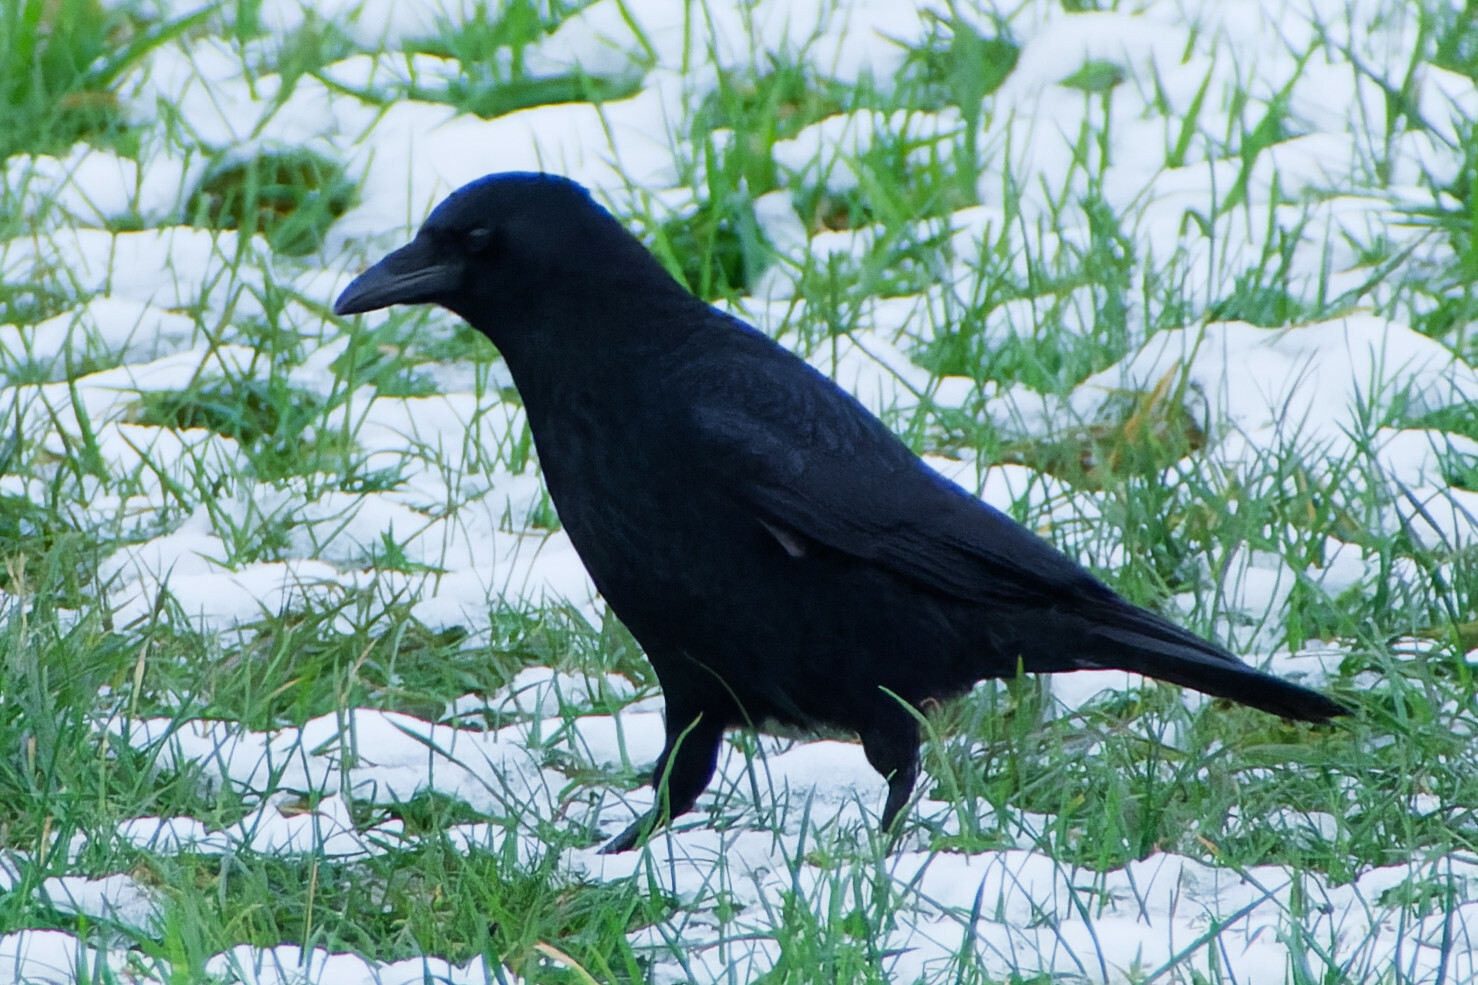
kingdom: Animalia
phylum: Chordata
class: Aves
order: Passeriformes
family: Corvidae
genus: Corvus
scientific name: Corvus corone
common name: Carrion crow
